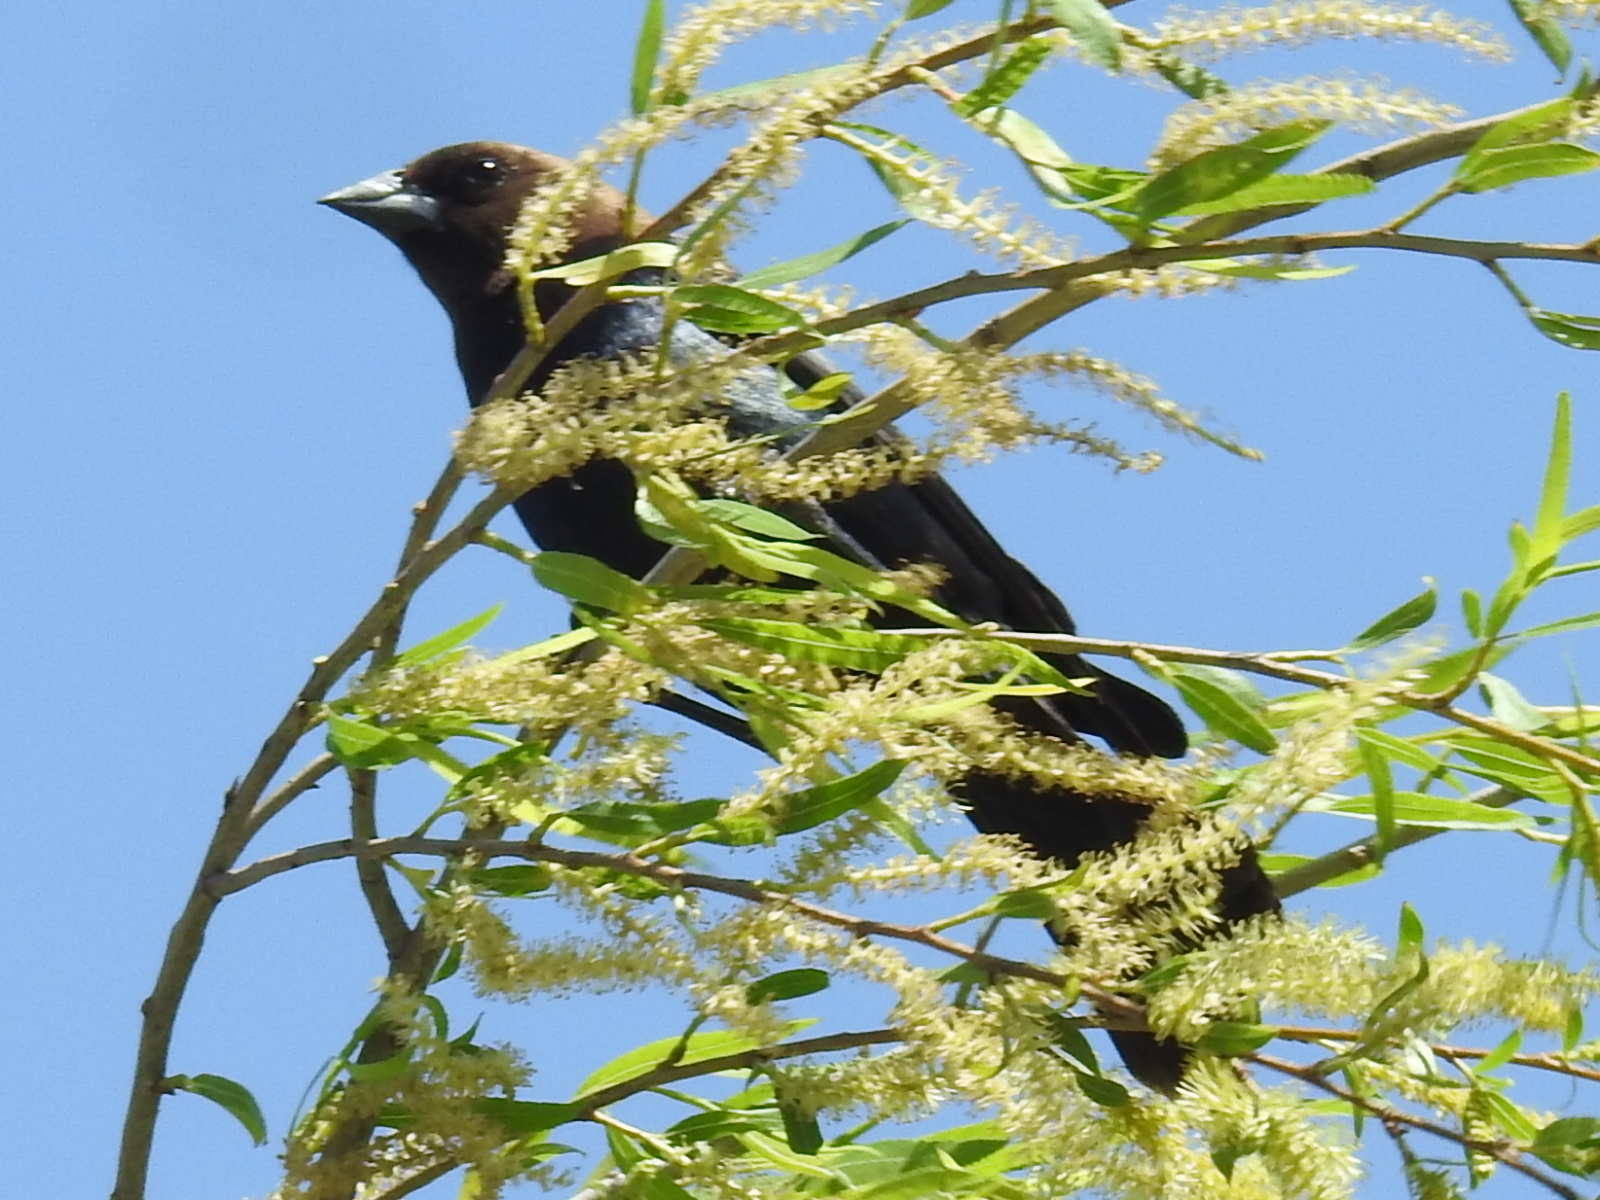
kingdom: Animalia
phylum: Chordata
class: Aves
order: Passeriformes
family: Icteridae
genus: Molothrus
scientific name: Molothrus ater
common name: Brown-headed cowbird
